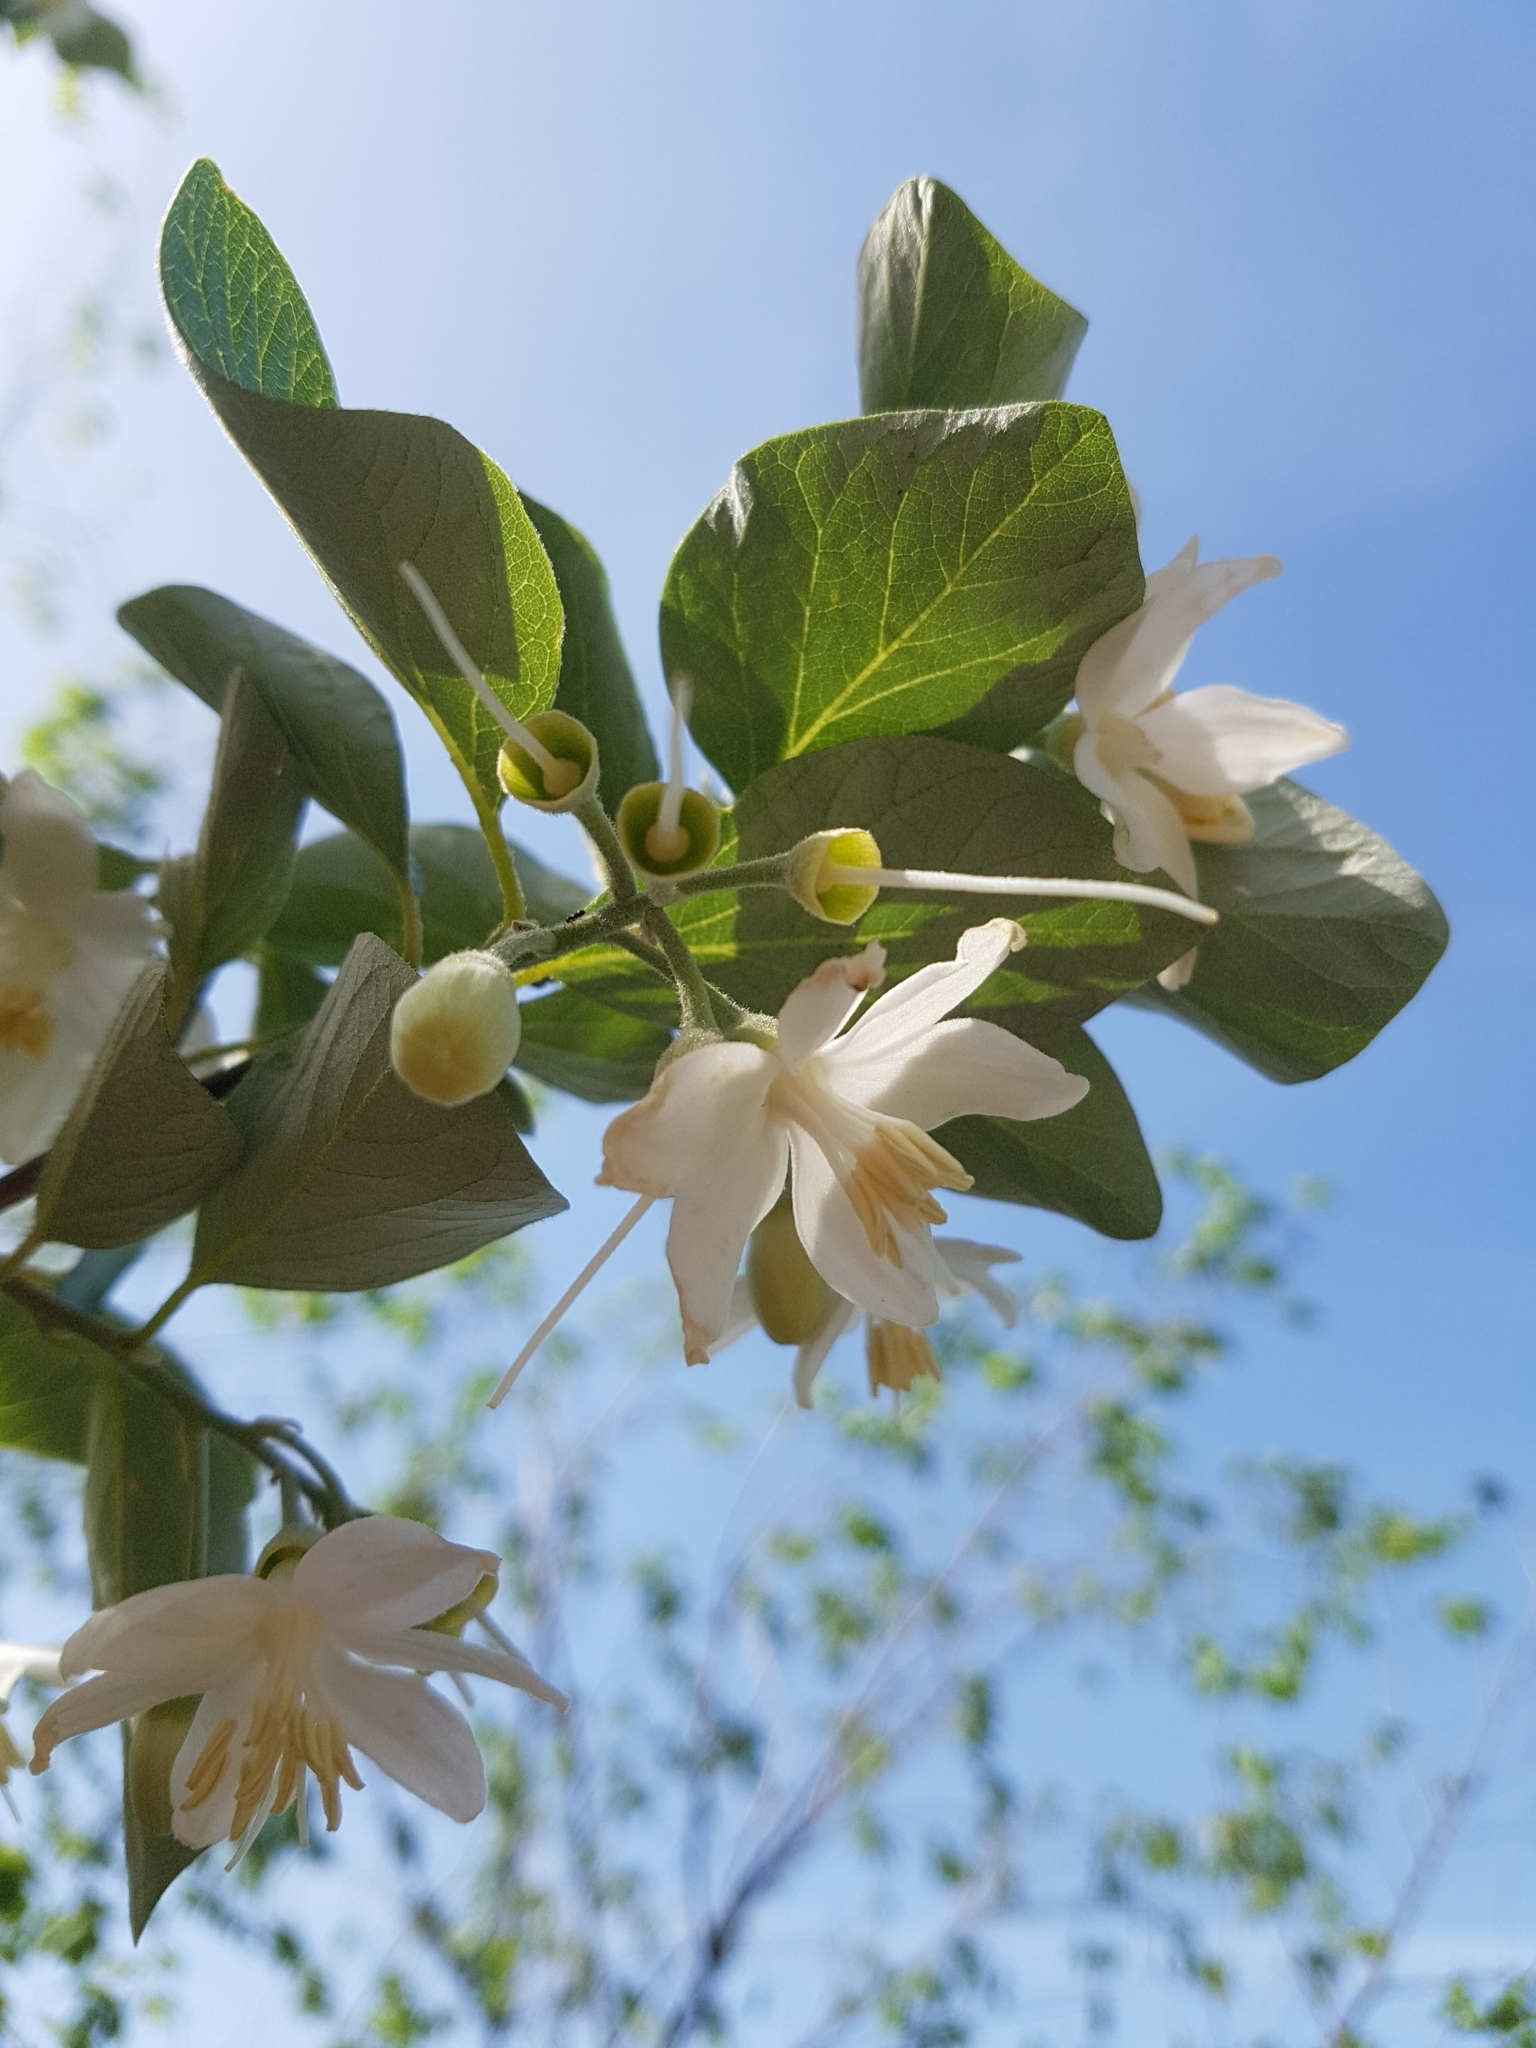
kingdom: Plantae
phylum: Tracheophyta
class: Magnoliopsida
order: Ericales
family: Styracaceae
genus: Styrax
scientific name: Styrax officinalis
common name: Storax
